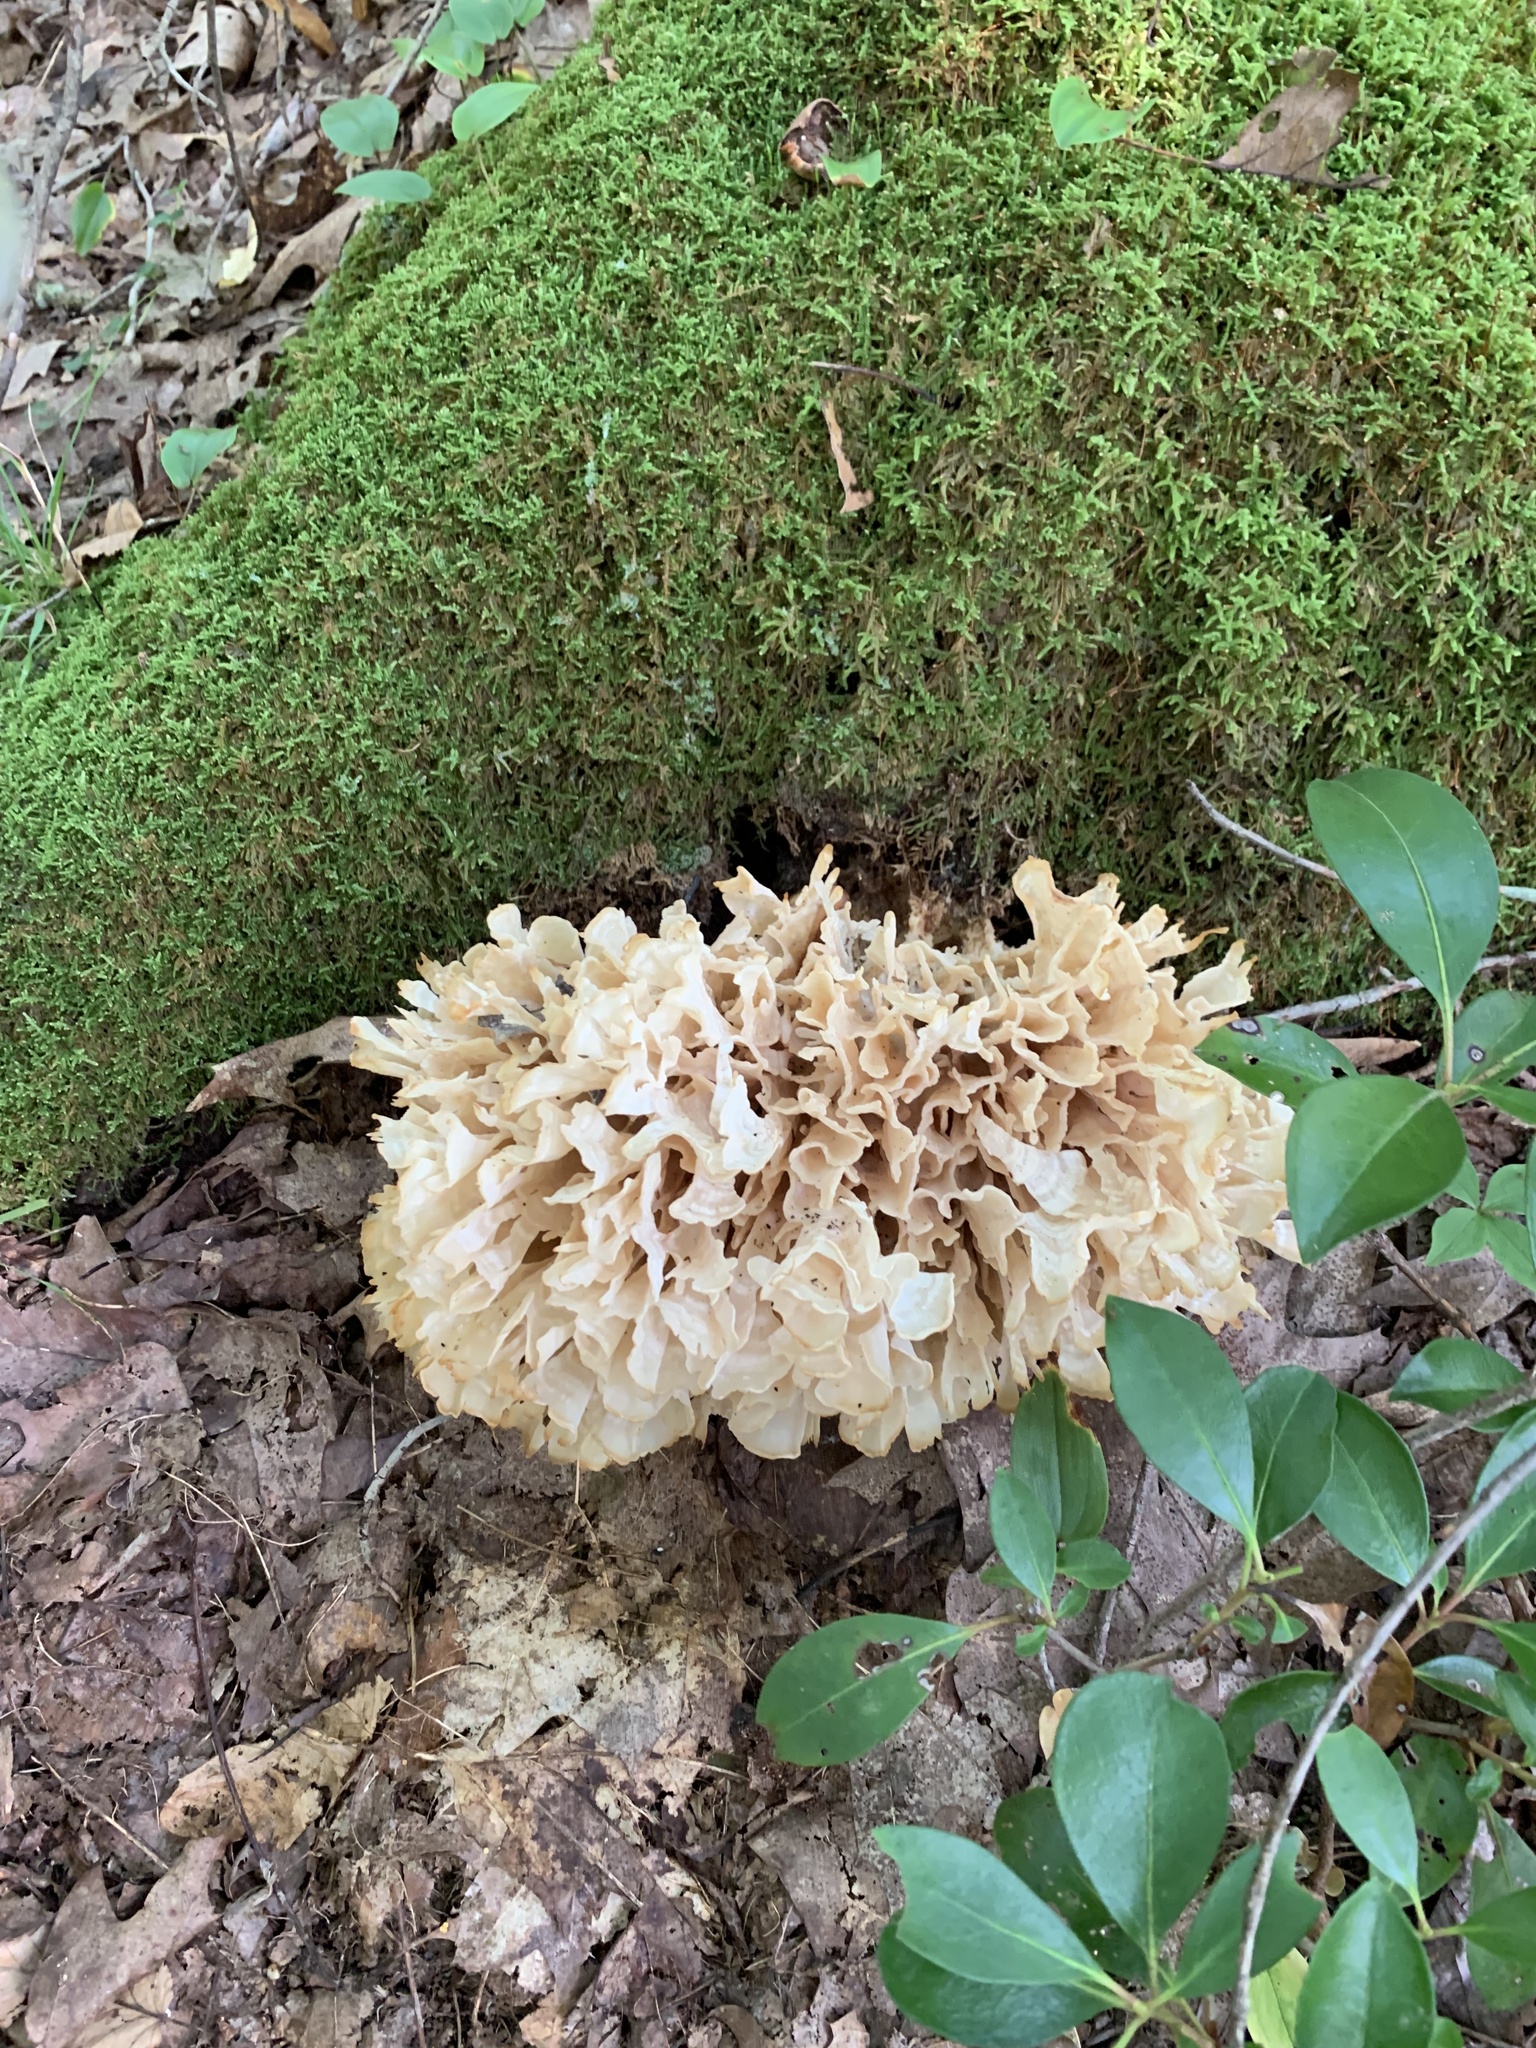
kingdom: Fungi
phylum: Basidiomycota
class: Agaricomycetes
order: Polyporales
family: Sparassidaceae
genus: Sparassis
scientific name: Sparassis spathulata
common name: Eastern cauliflower mushroom
